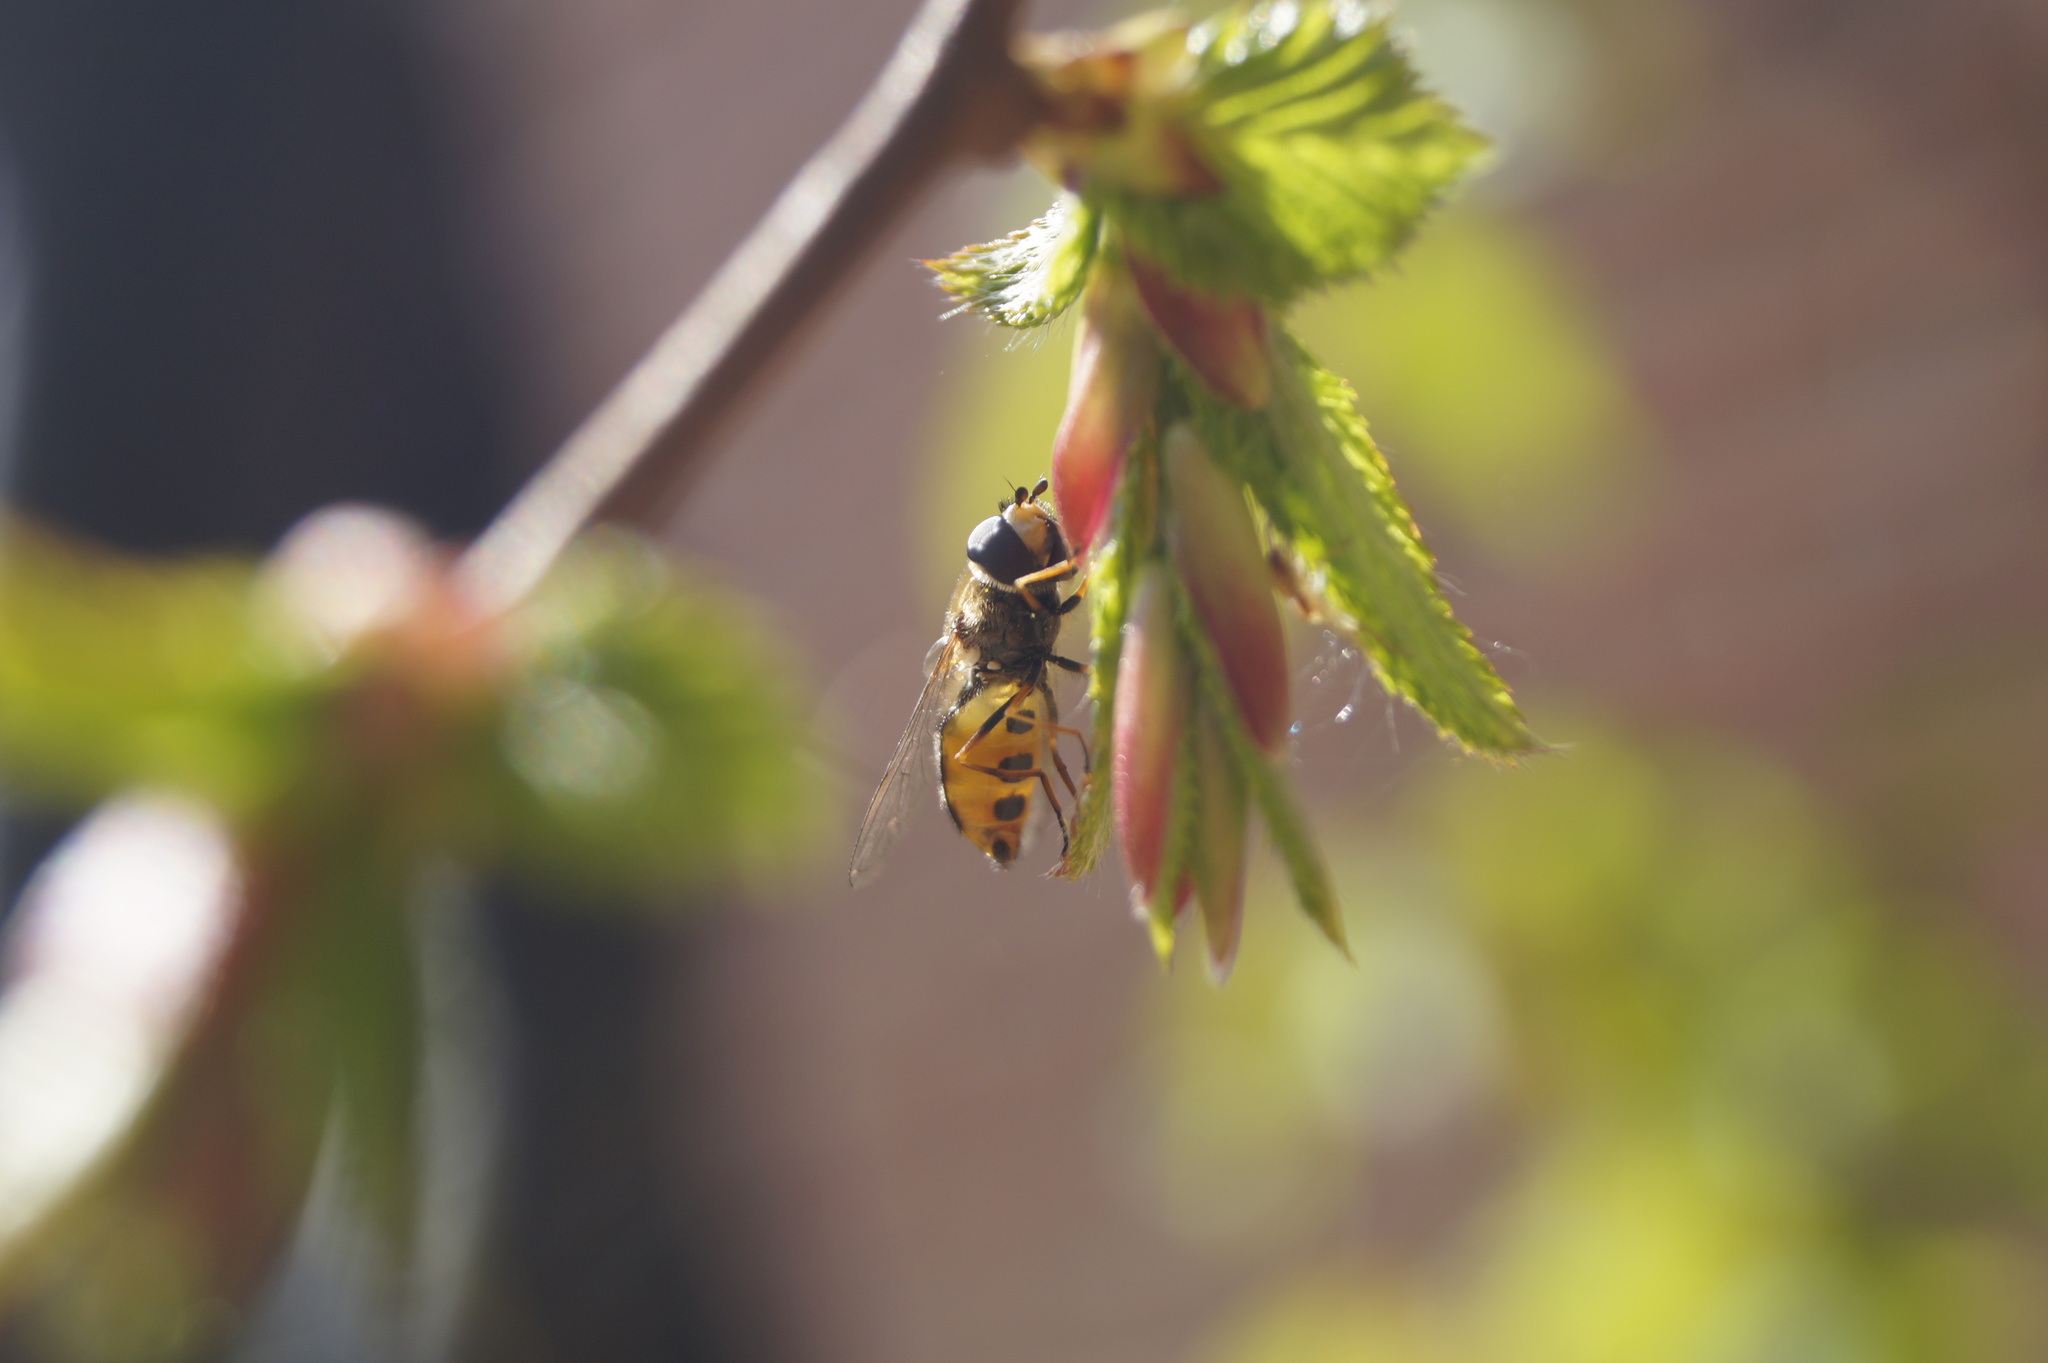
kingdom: Animalia
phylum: Arthropoda
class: Insecta
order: Diptera
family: Syrphidae
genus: Eupeodes
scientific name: Eupeodes luniger
